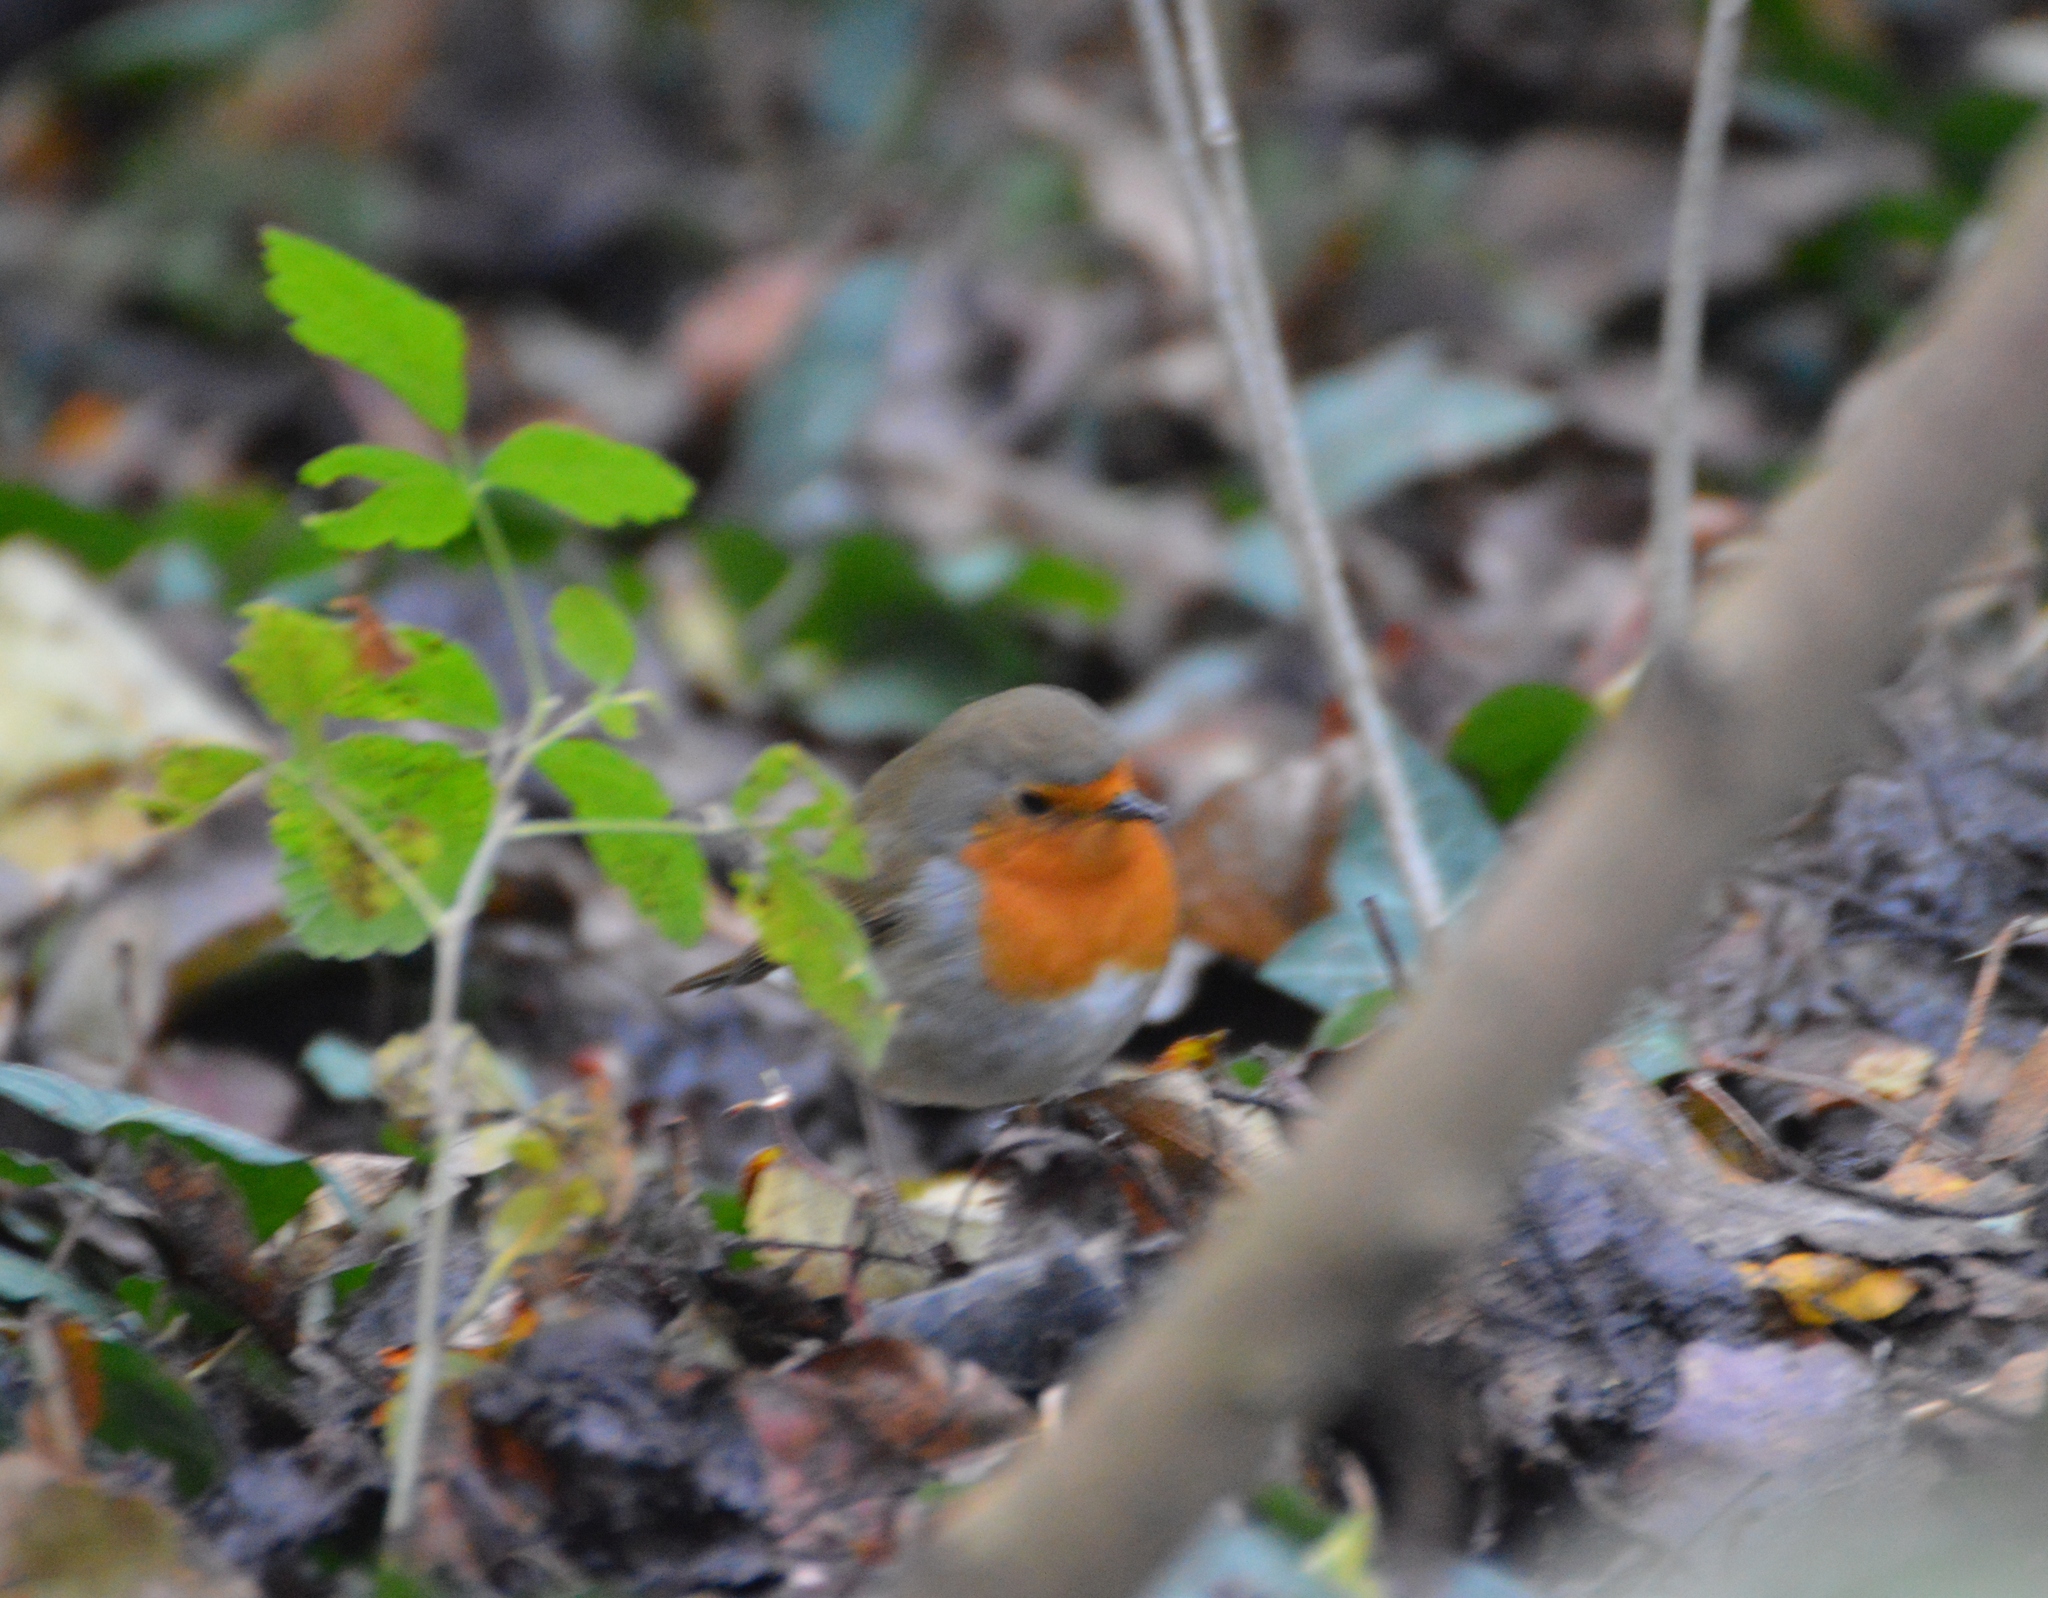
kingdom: Animalia
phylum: Chordata
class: Aves
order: Passeriformes
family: Muscicapidae
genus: Erithacus
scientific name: Erithacus rubecula
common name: European robin
